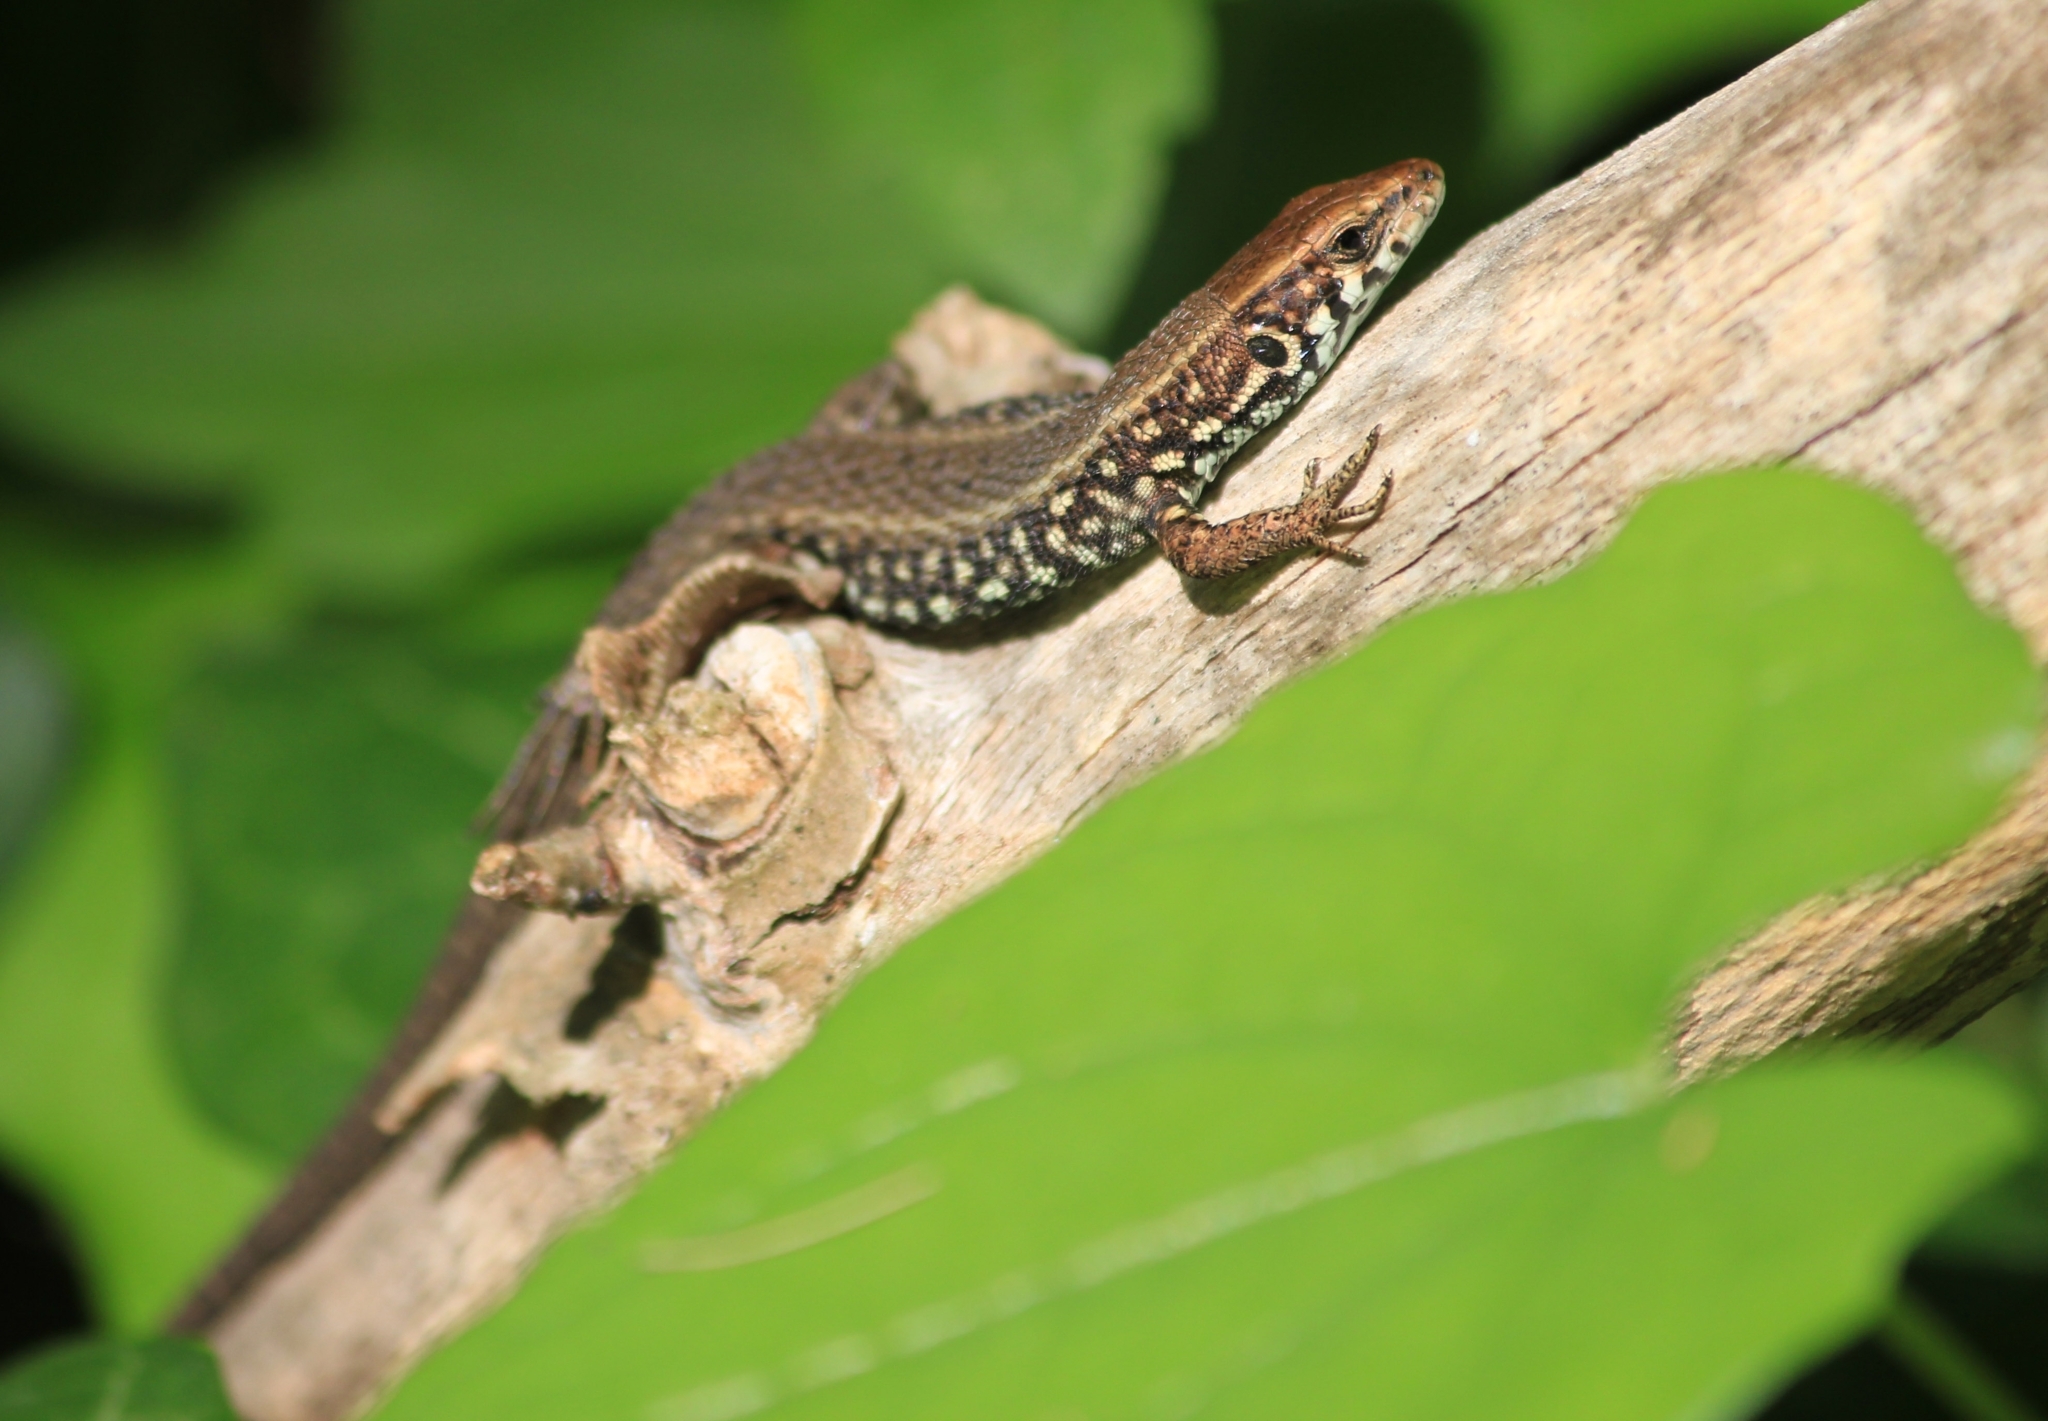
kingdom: Animalia
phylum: Chordata
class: Squamata
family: Lacertidae
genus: Algyroides
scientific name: Algyroides moreoticus
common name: Greek algyroides
